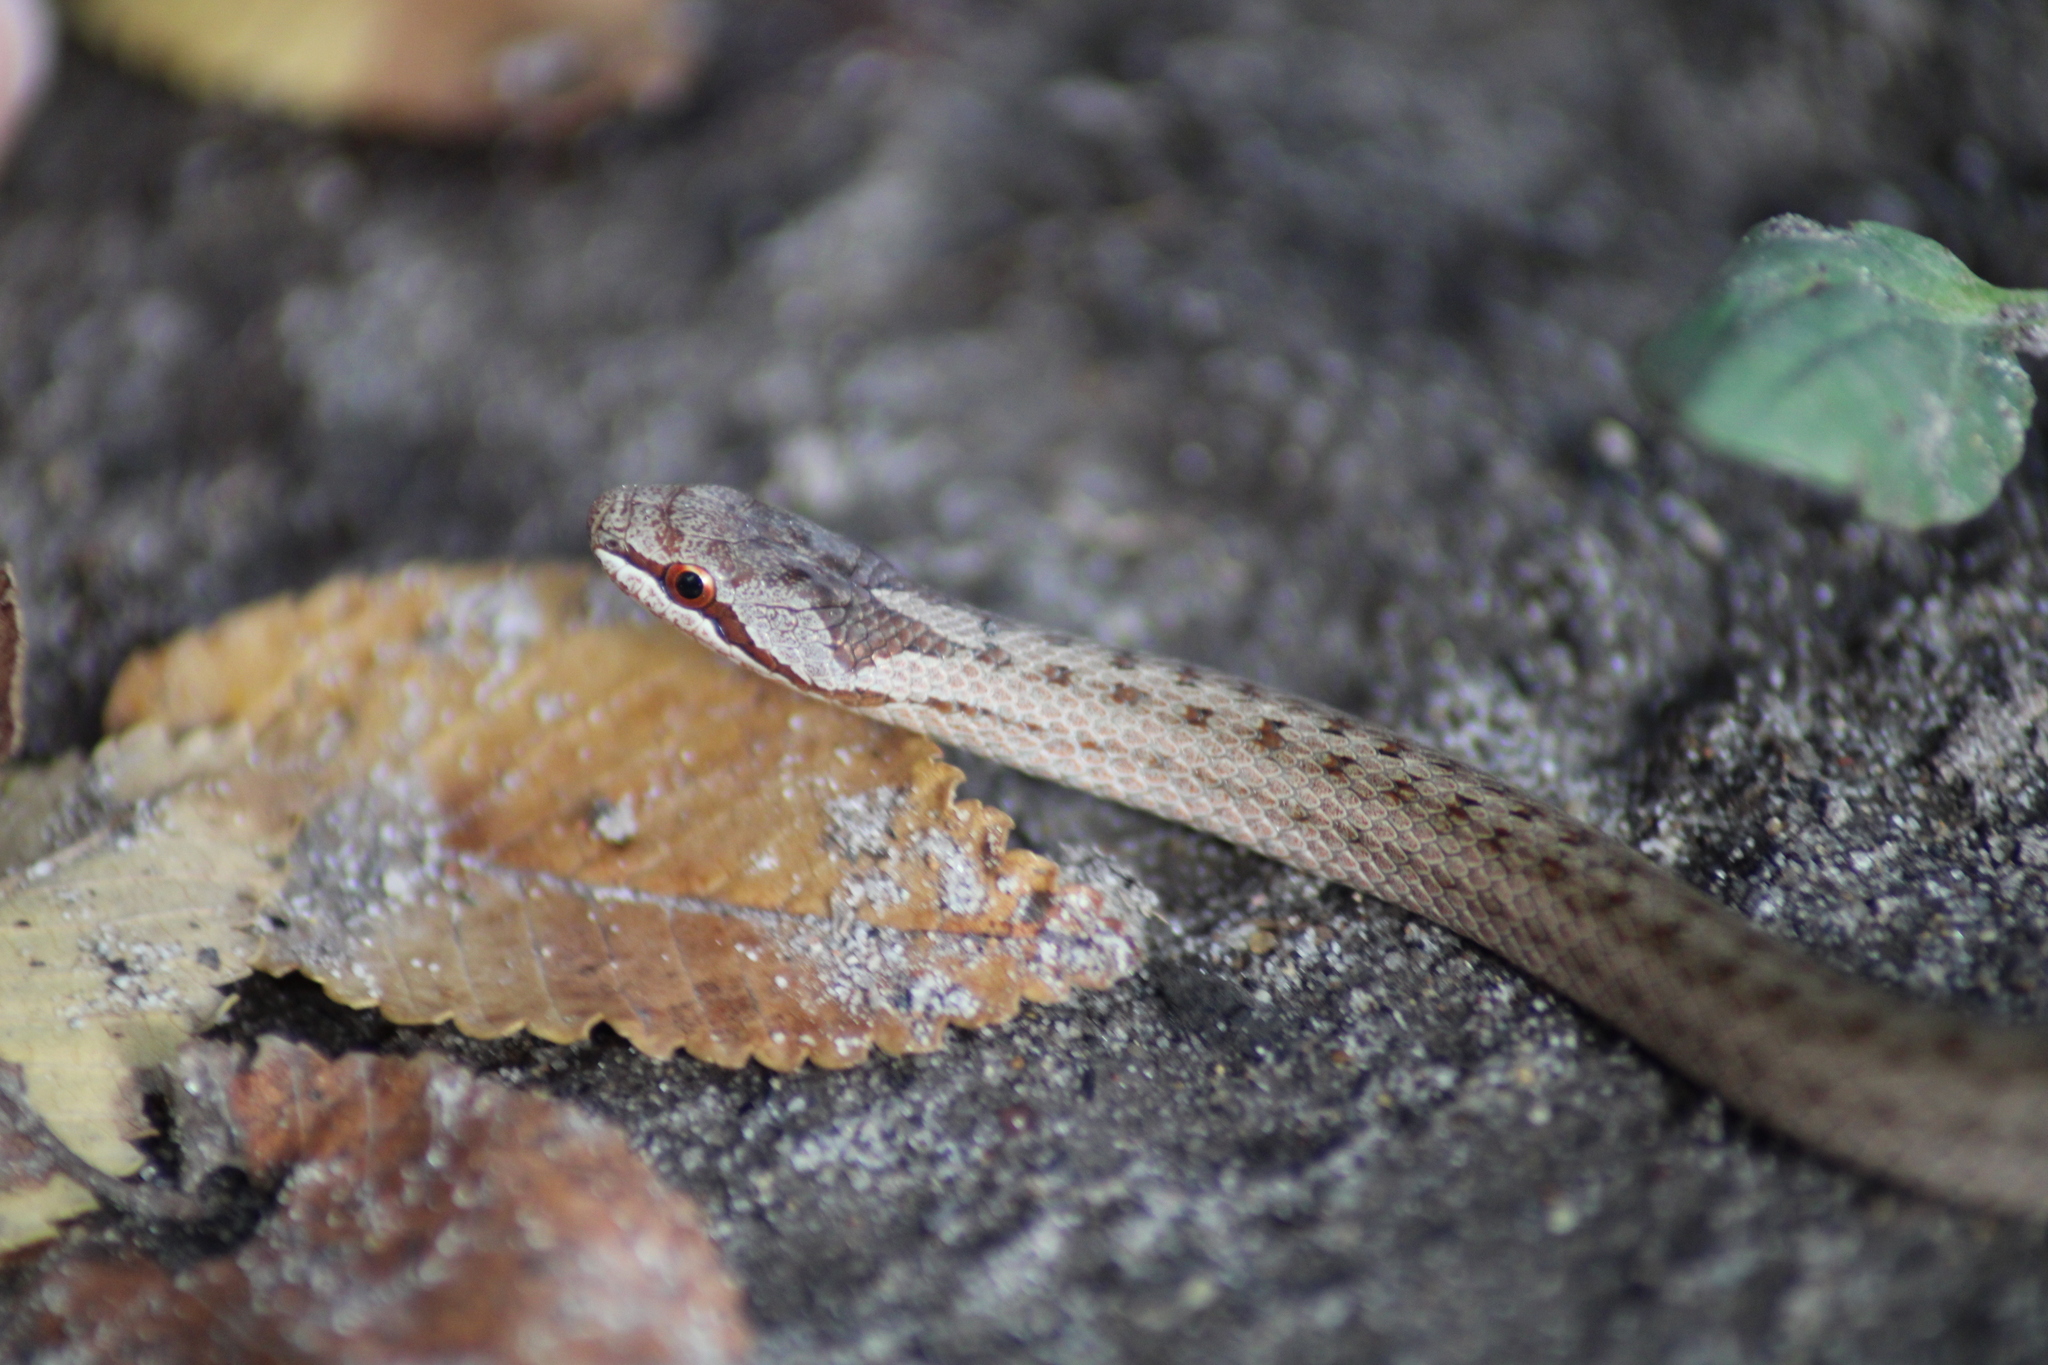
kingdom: Animalia
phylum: Chordata
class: Squamata
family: Colubridae
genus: Coronella
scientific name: Coronella austriaca
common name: Smooth snake
